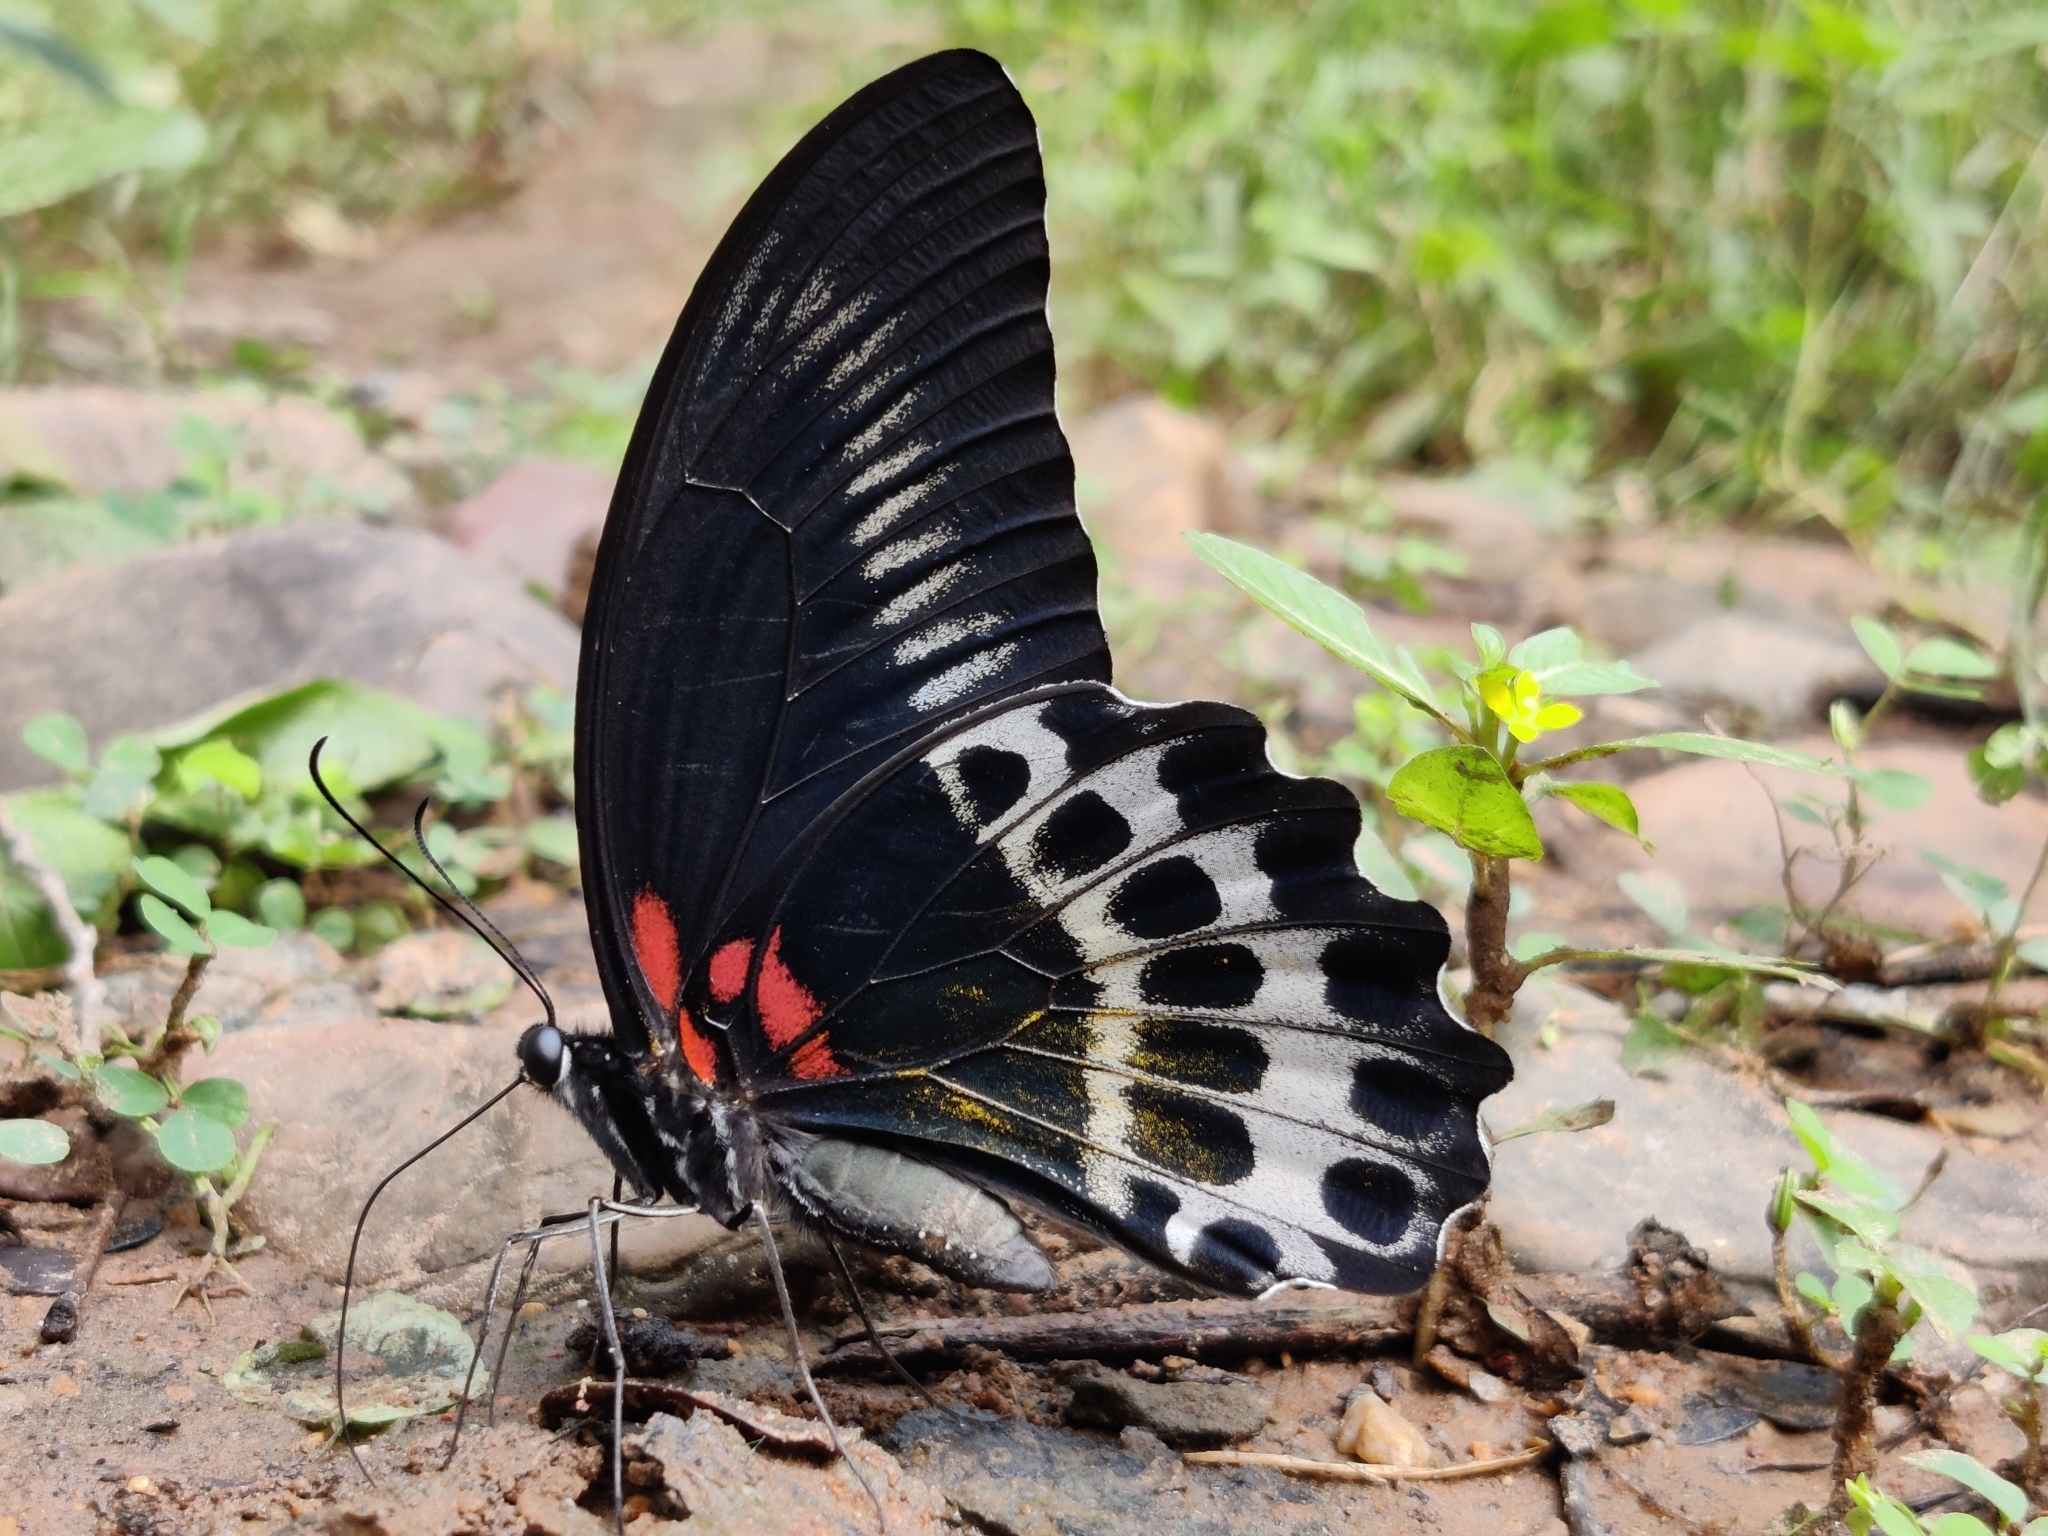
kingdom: Animalia
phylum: Arthropoda
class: Insecta
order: Lepidoptera
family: Papilionidae
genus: Papilio
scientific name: Papilio memnon
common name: Great mormon
